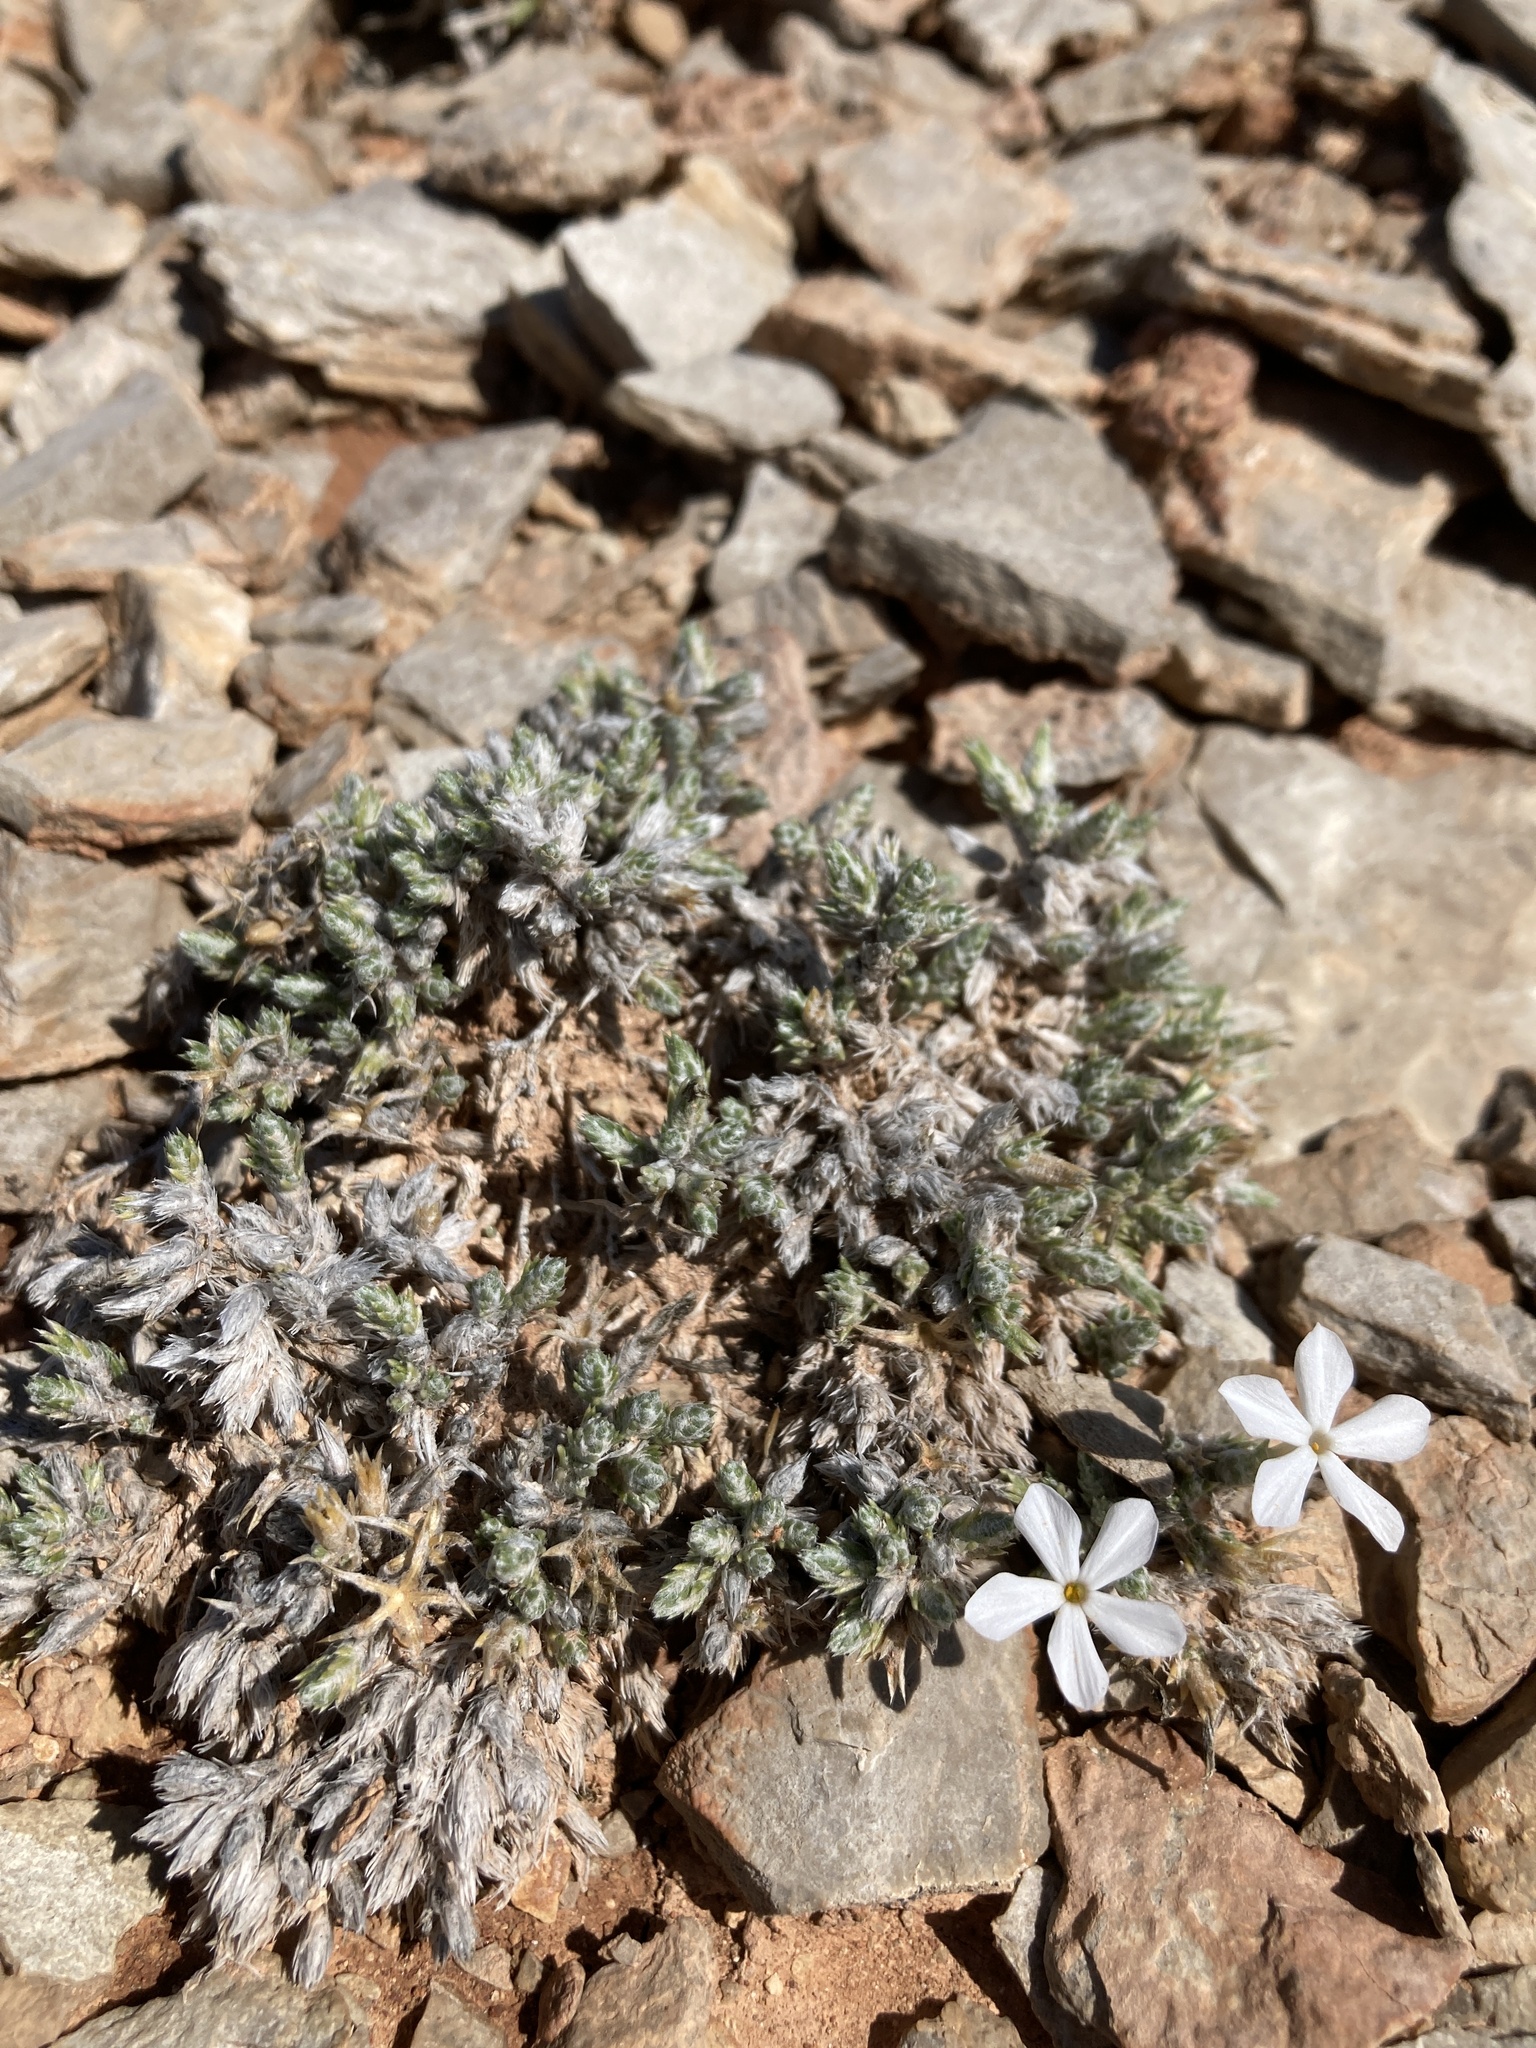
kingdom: Plantae
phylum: Tracheophyta
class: Magnoliopsida
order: Ericales
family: Polemoniaceae
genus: Phlox
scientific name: Phlox hoodii
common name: Moss phlox
